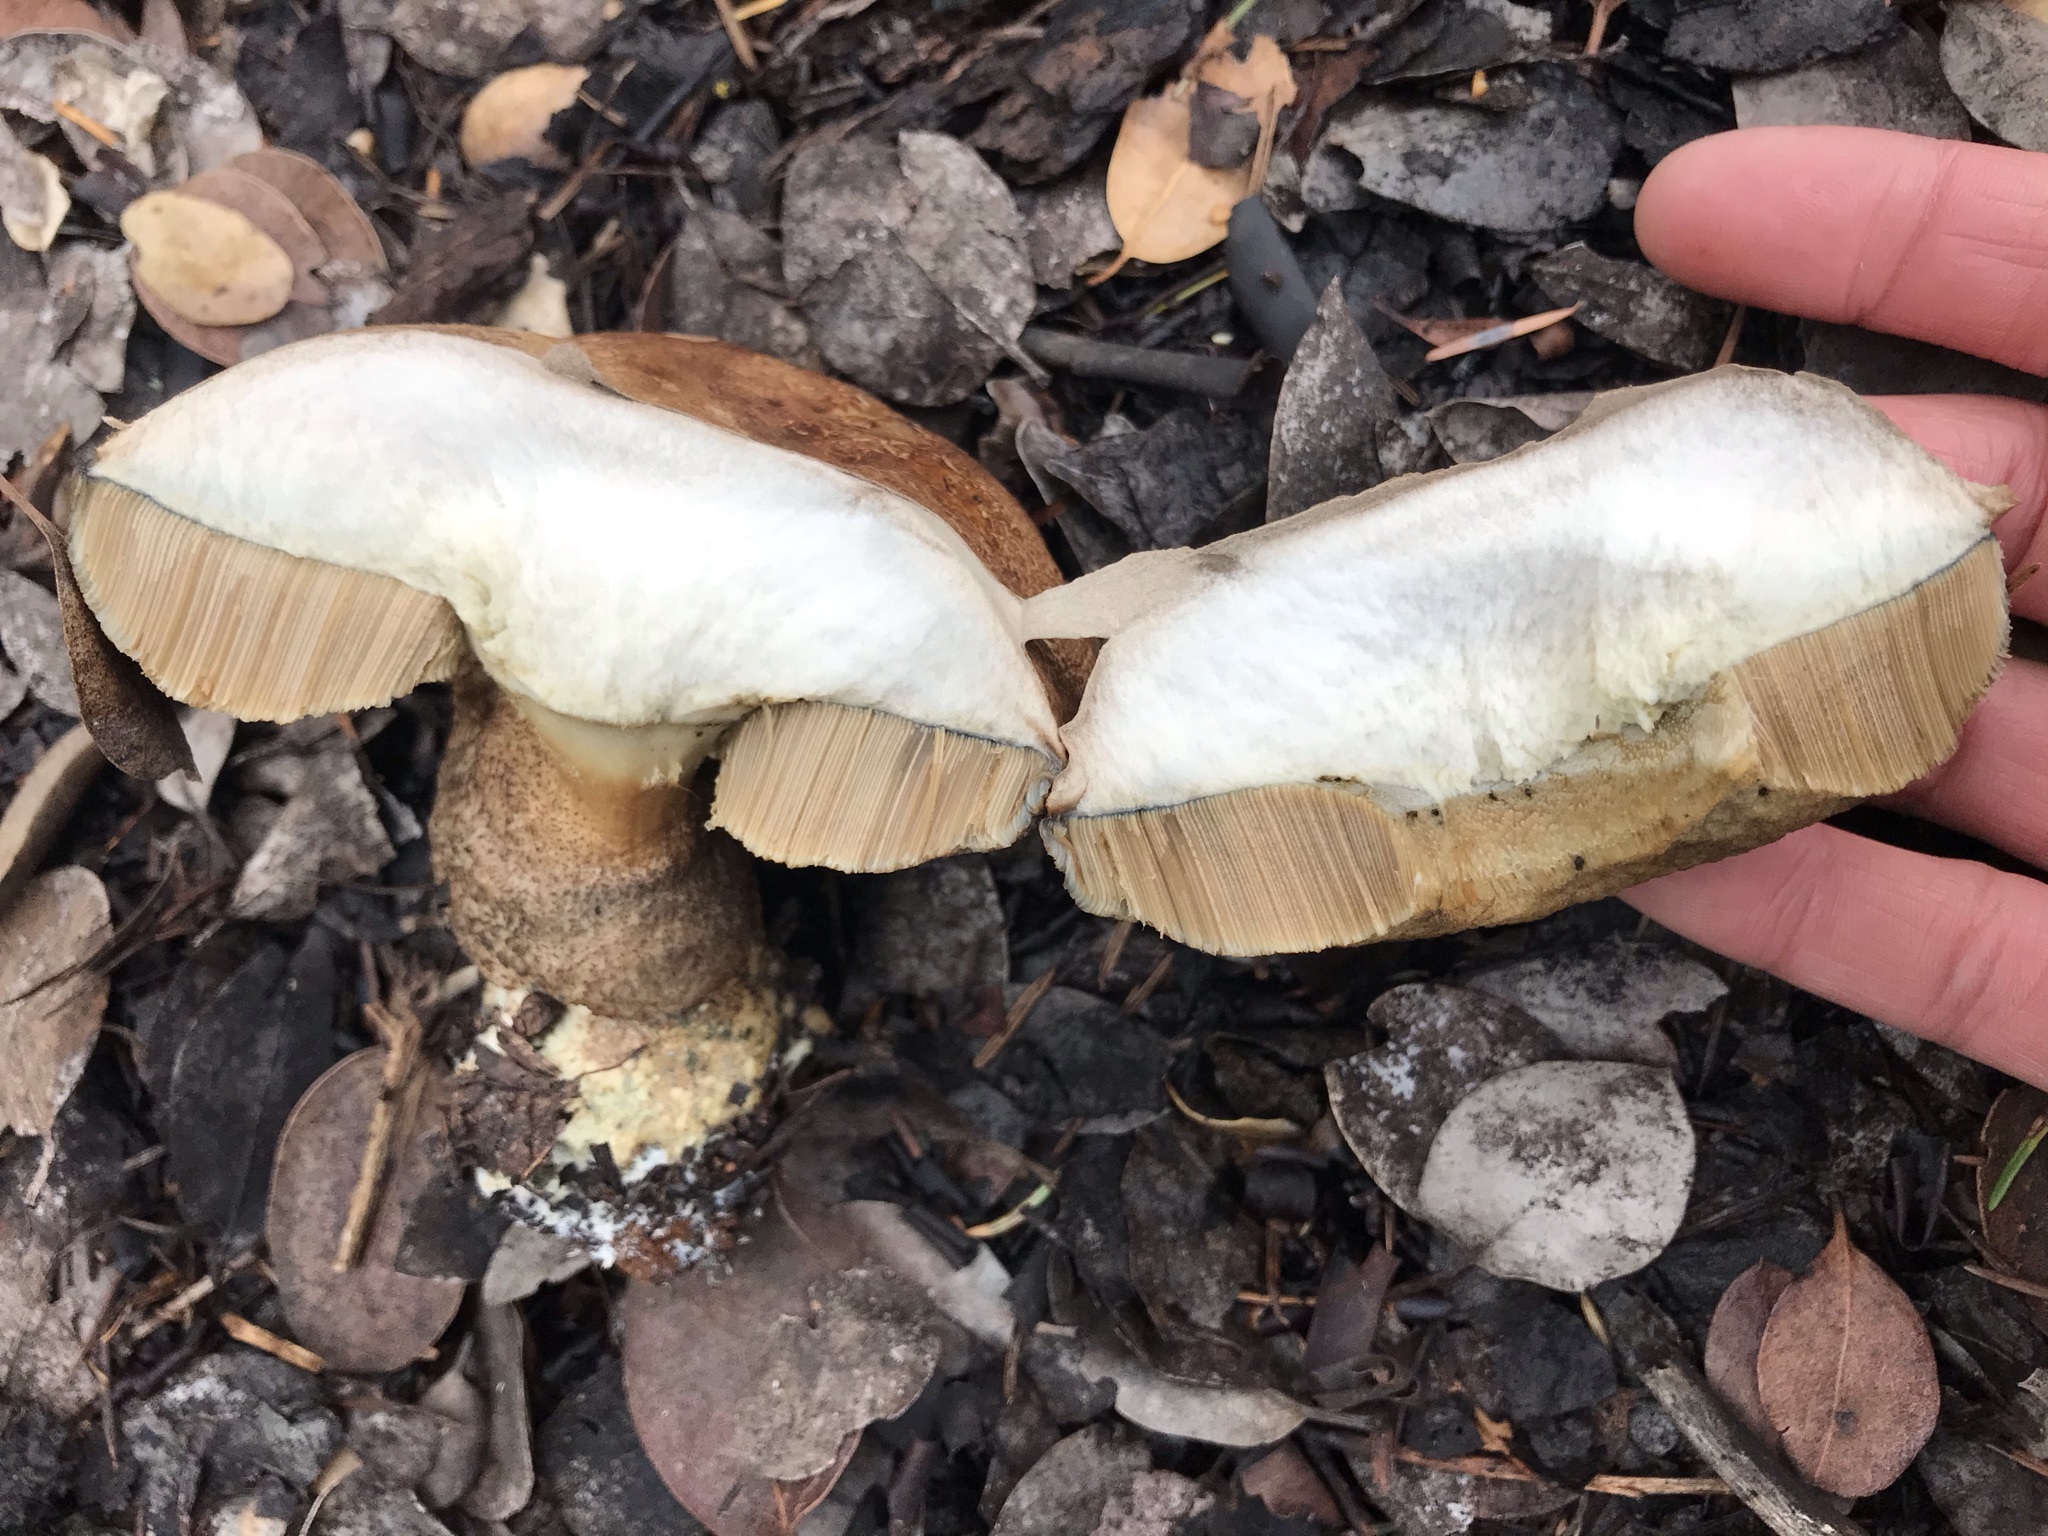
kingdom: Fungi
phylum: Basidiomycota
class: Agaricomycetes
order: Boletales
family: Boletaceae
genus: Leccinum
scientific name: Leccinum manzanitae
